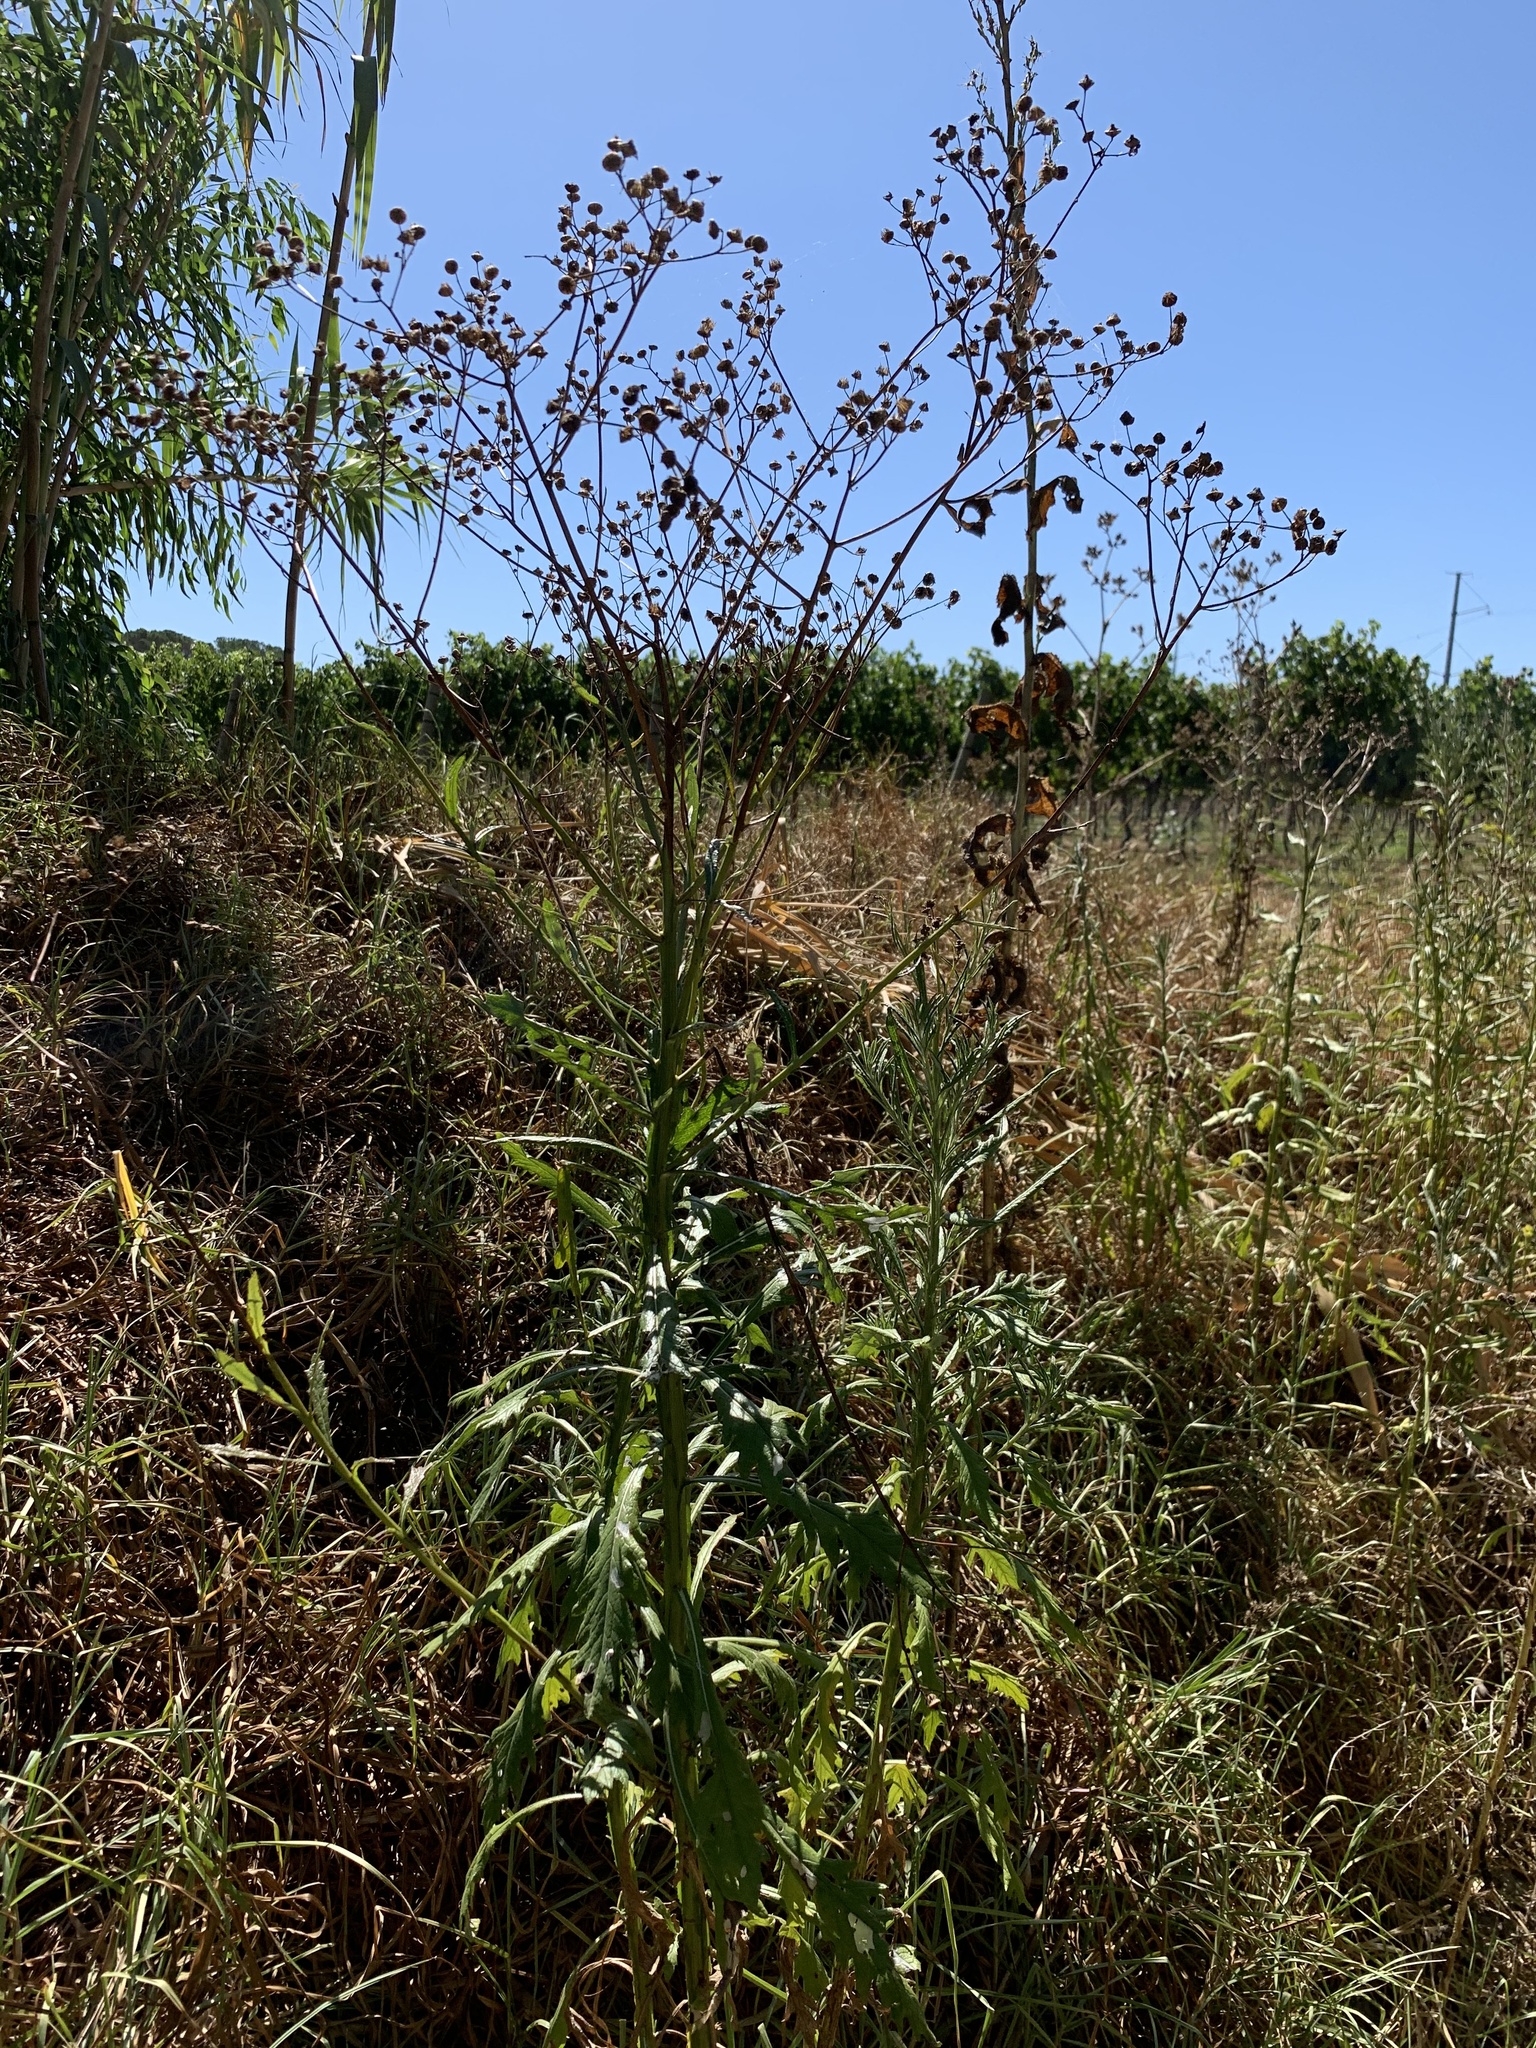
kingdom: Plantae
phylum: Tracheophyta
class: Magnoliopsida
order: Asterales
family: Asteraceae
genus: Senecio
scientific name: Senecio pterophorus
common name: Shoddy ragwort
